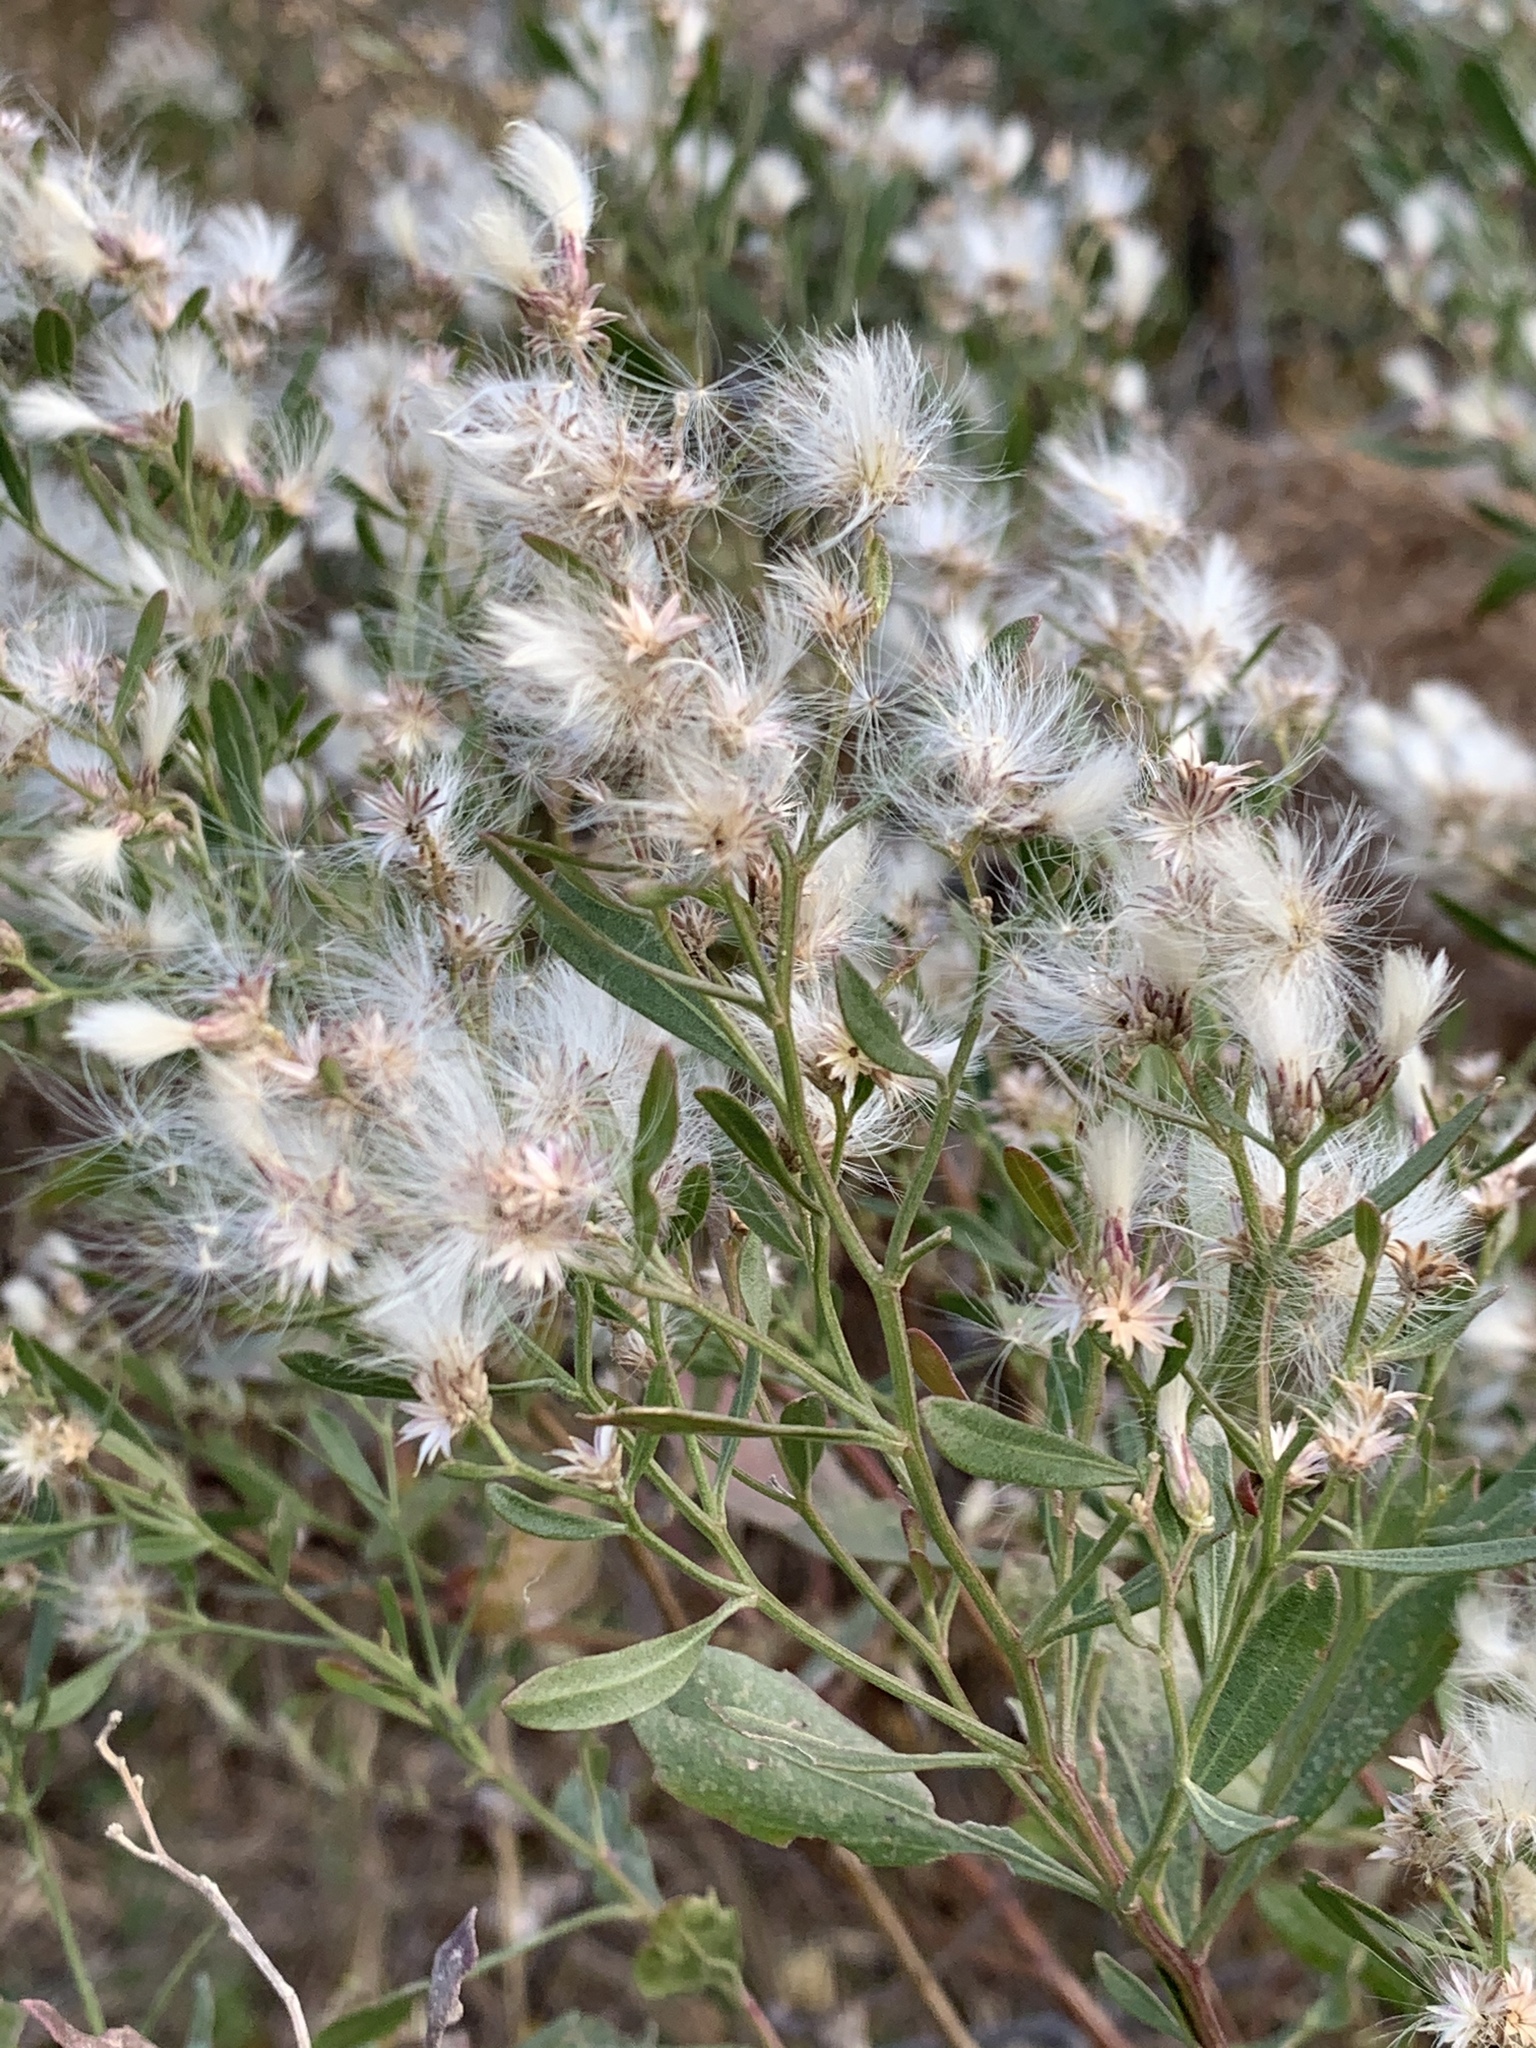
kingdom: Plantae
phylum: Tracheophyta
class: Magnoliopsida
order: Asterales
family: Asteraceae
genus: Baccharis
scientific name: Baccharis halimifolia
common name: Eastern baccharis
